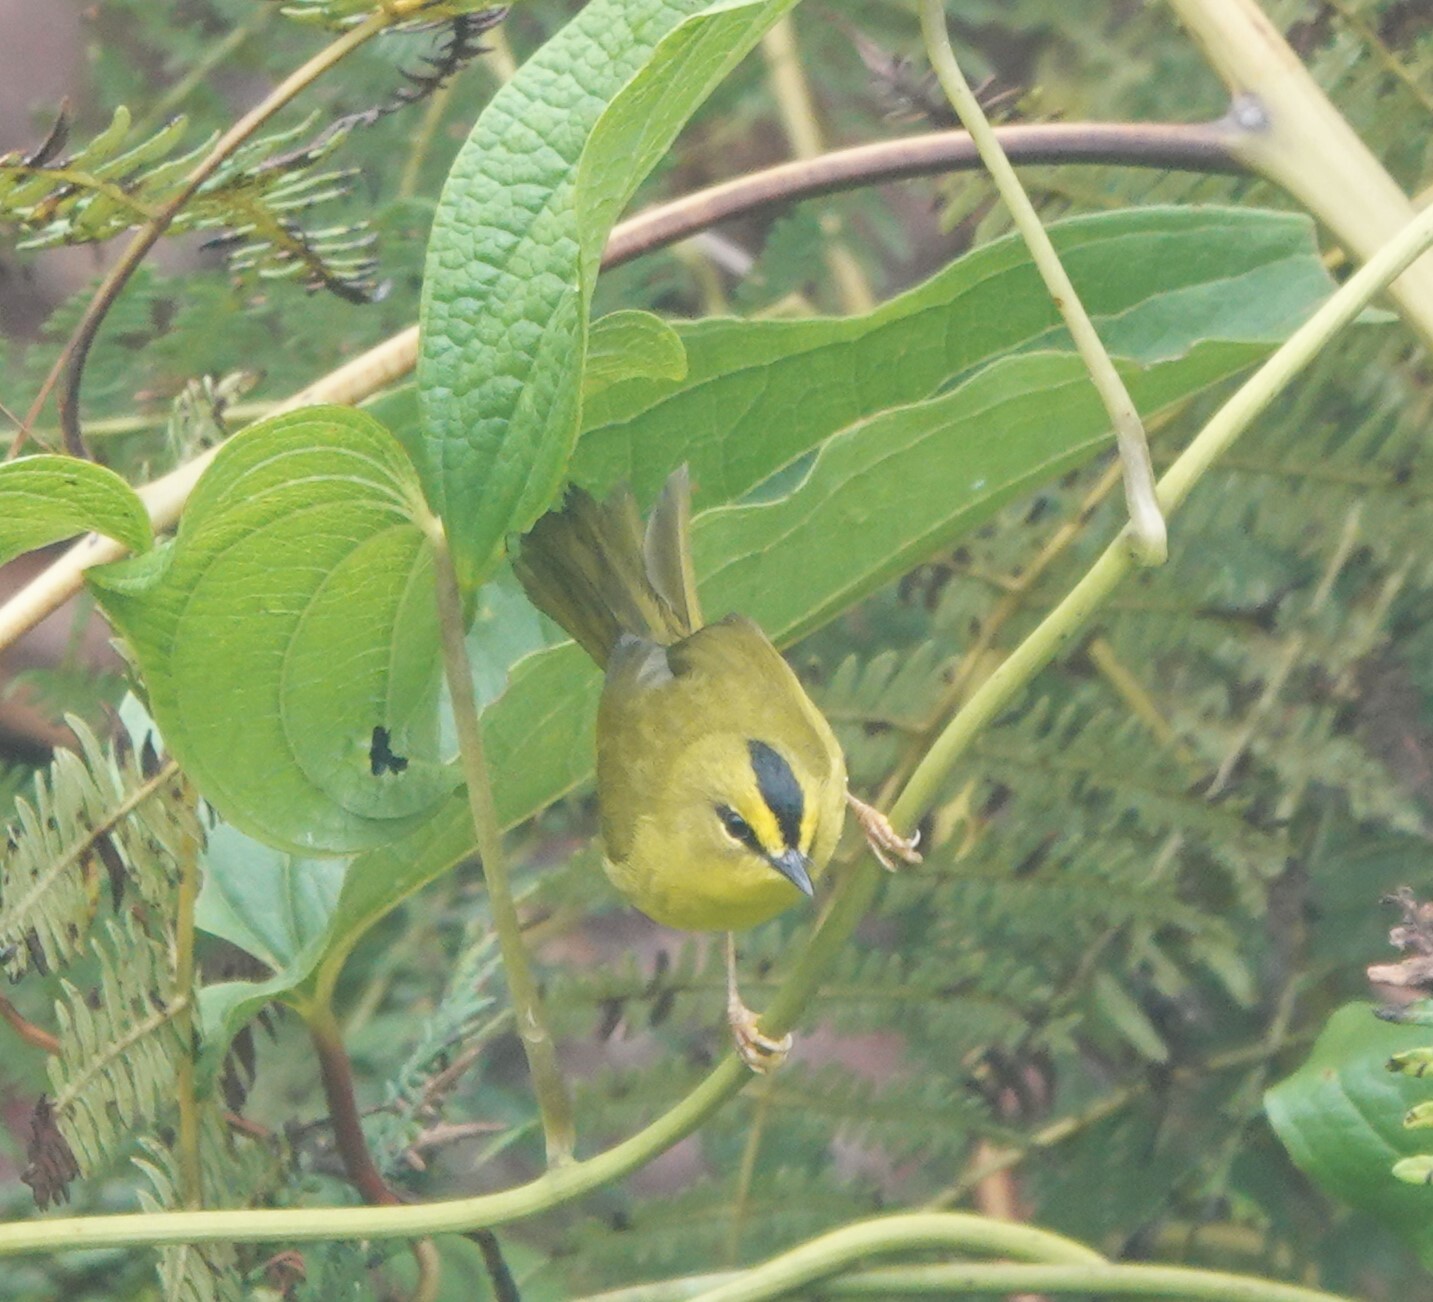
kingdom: Animalia
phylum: Chordata
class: Aves
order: Passeriformes
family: Parulidae
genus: Myiothlypis
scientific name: Myiothlypis nigrocristata
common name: Black-crested warbler
